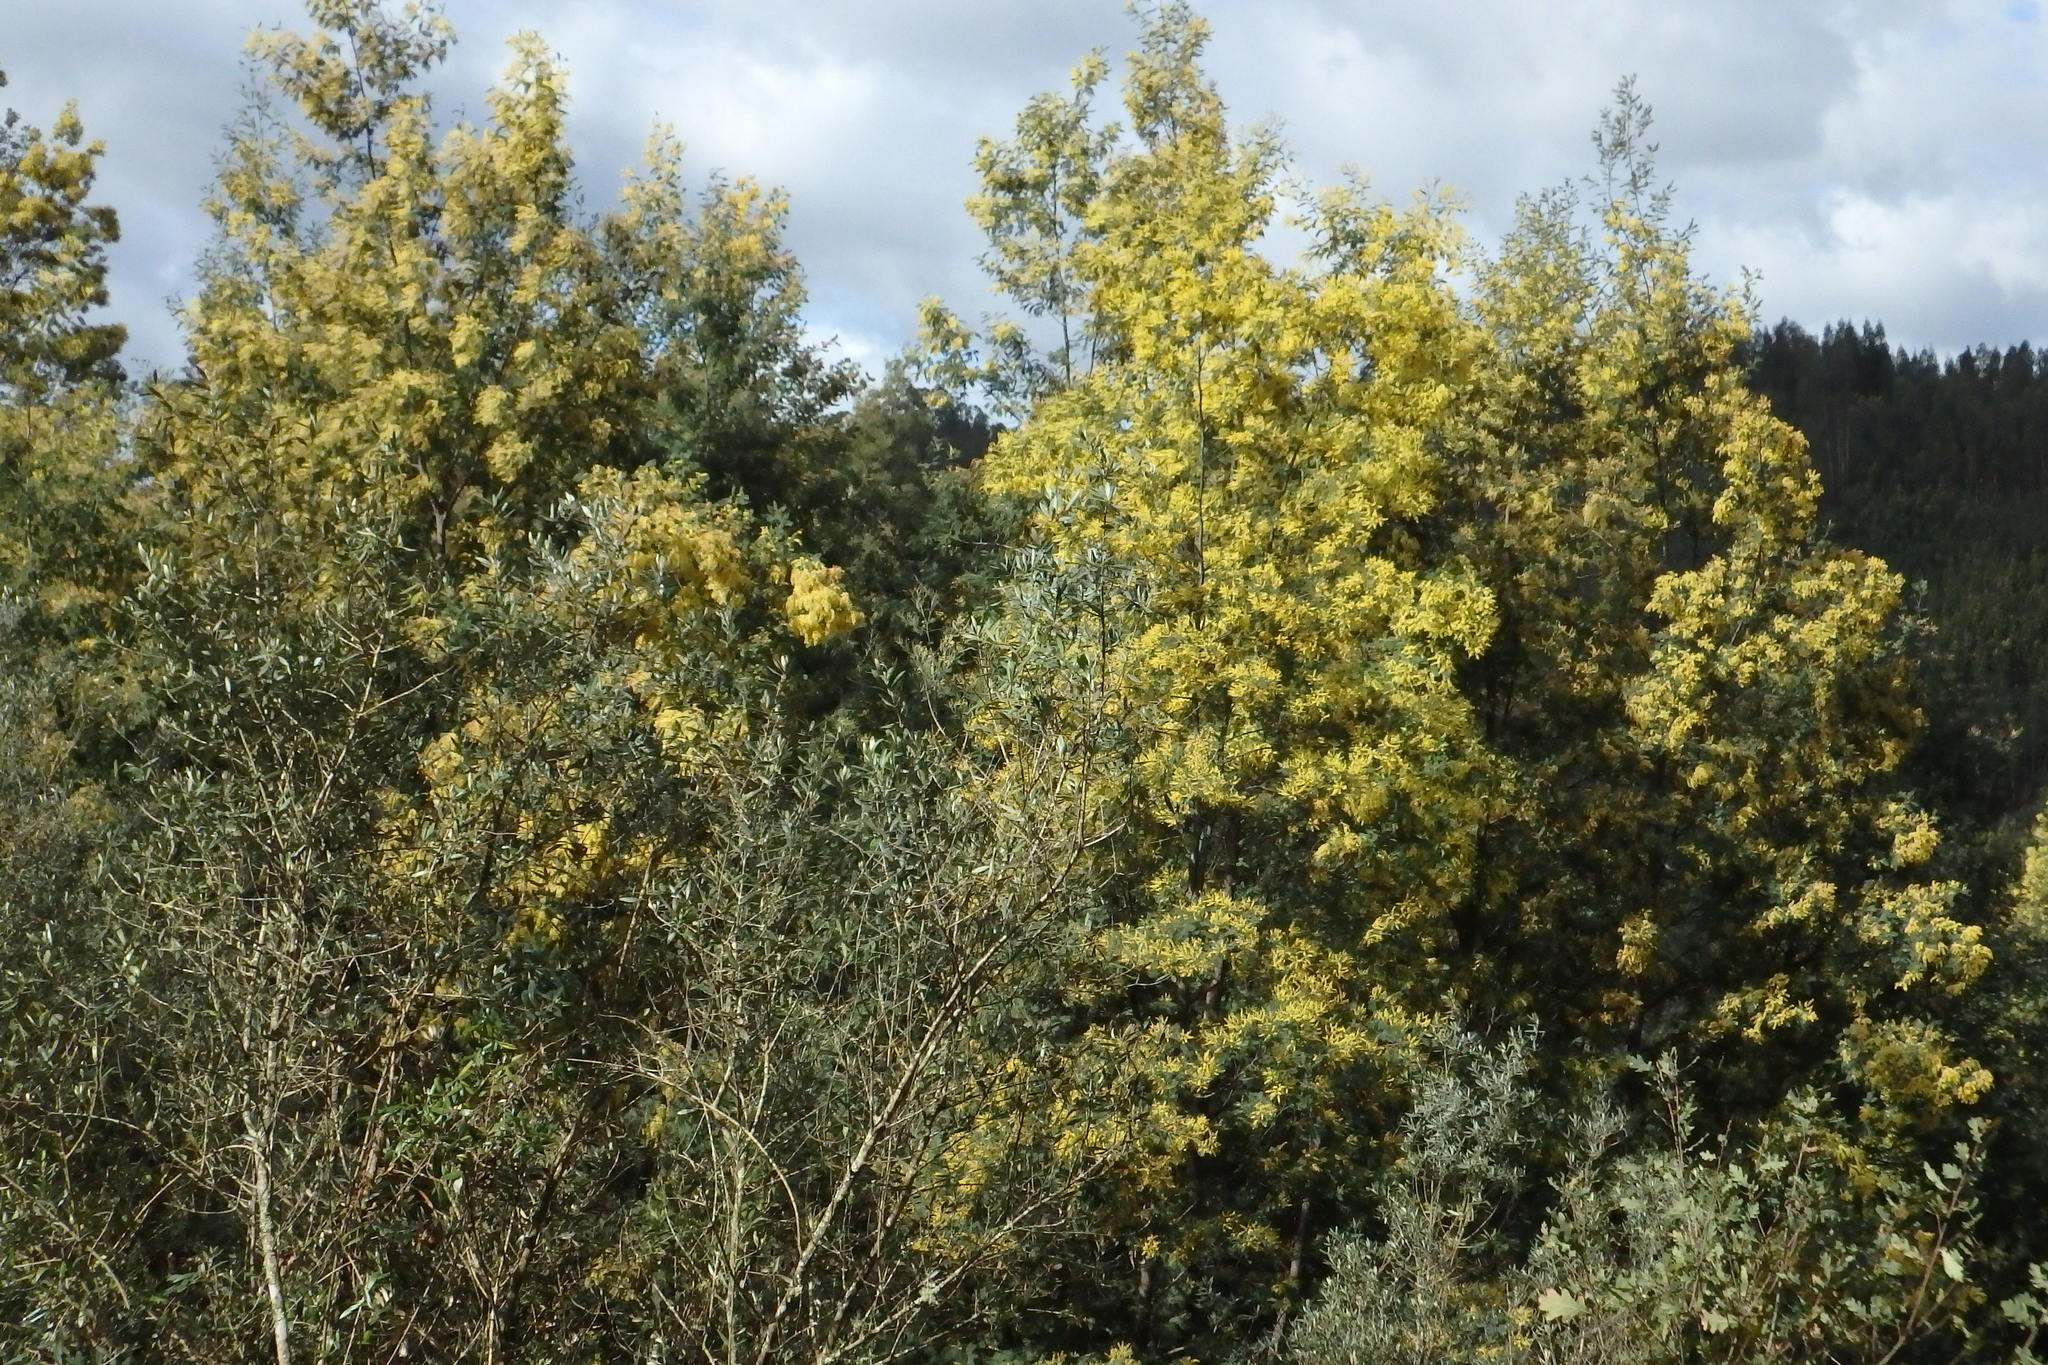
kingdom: Plantae
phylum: Tracheophyta
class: Magnoliopsida
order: Fabales
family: Fabaceae
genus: Acacia
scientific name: Acacia dealbata
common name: Silver wattle
